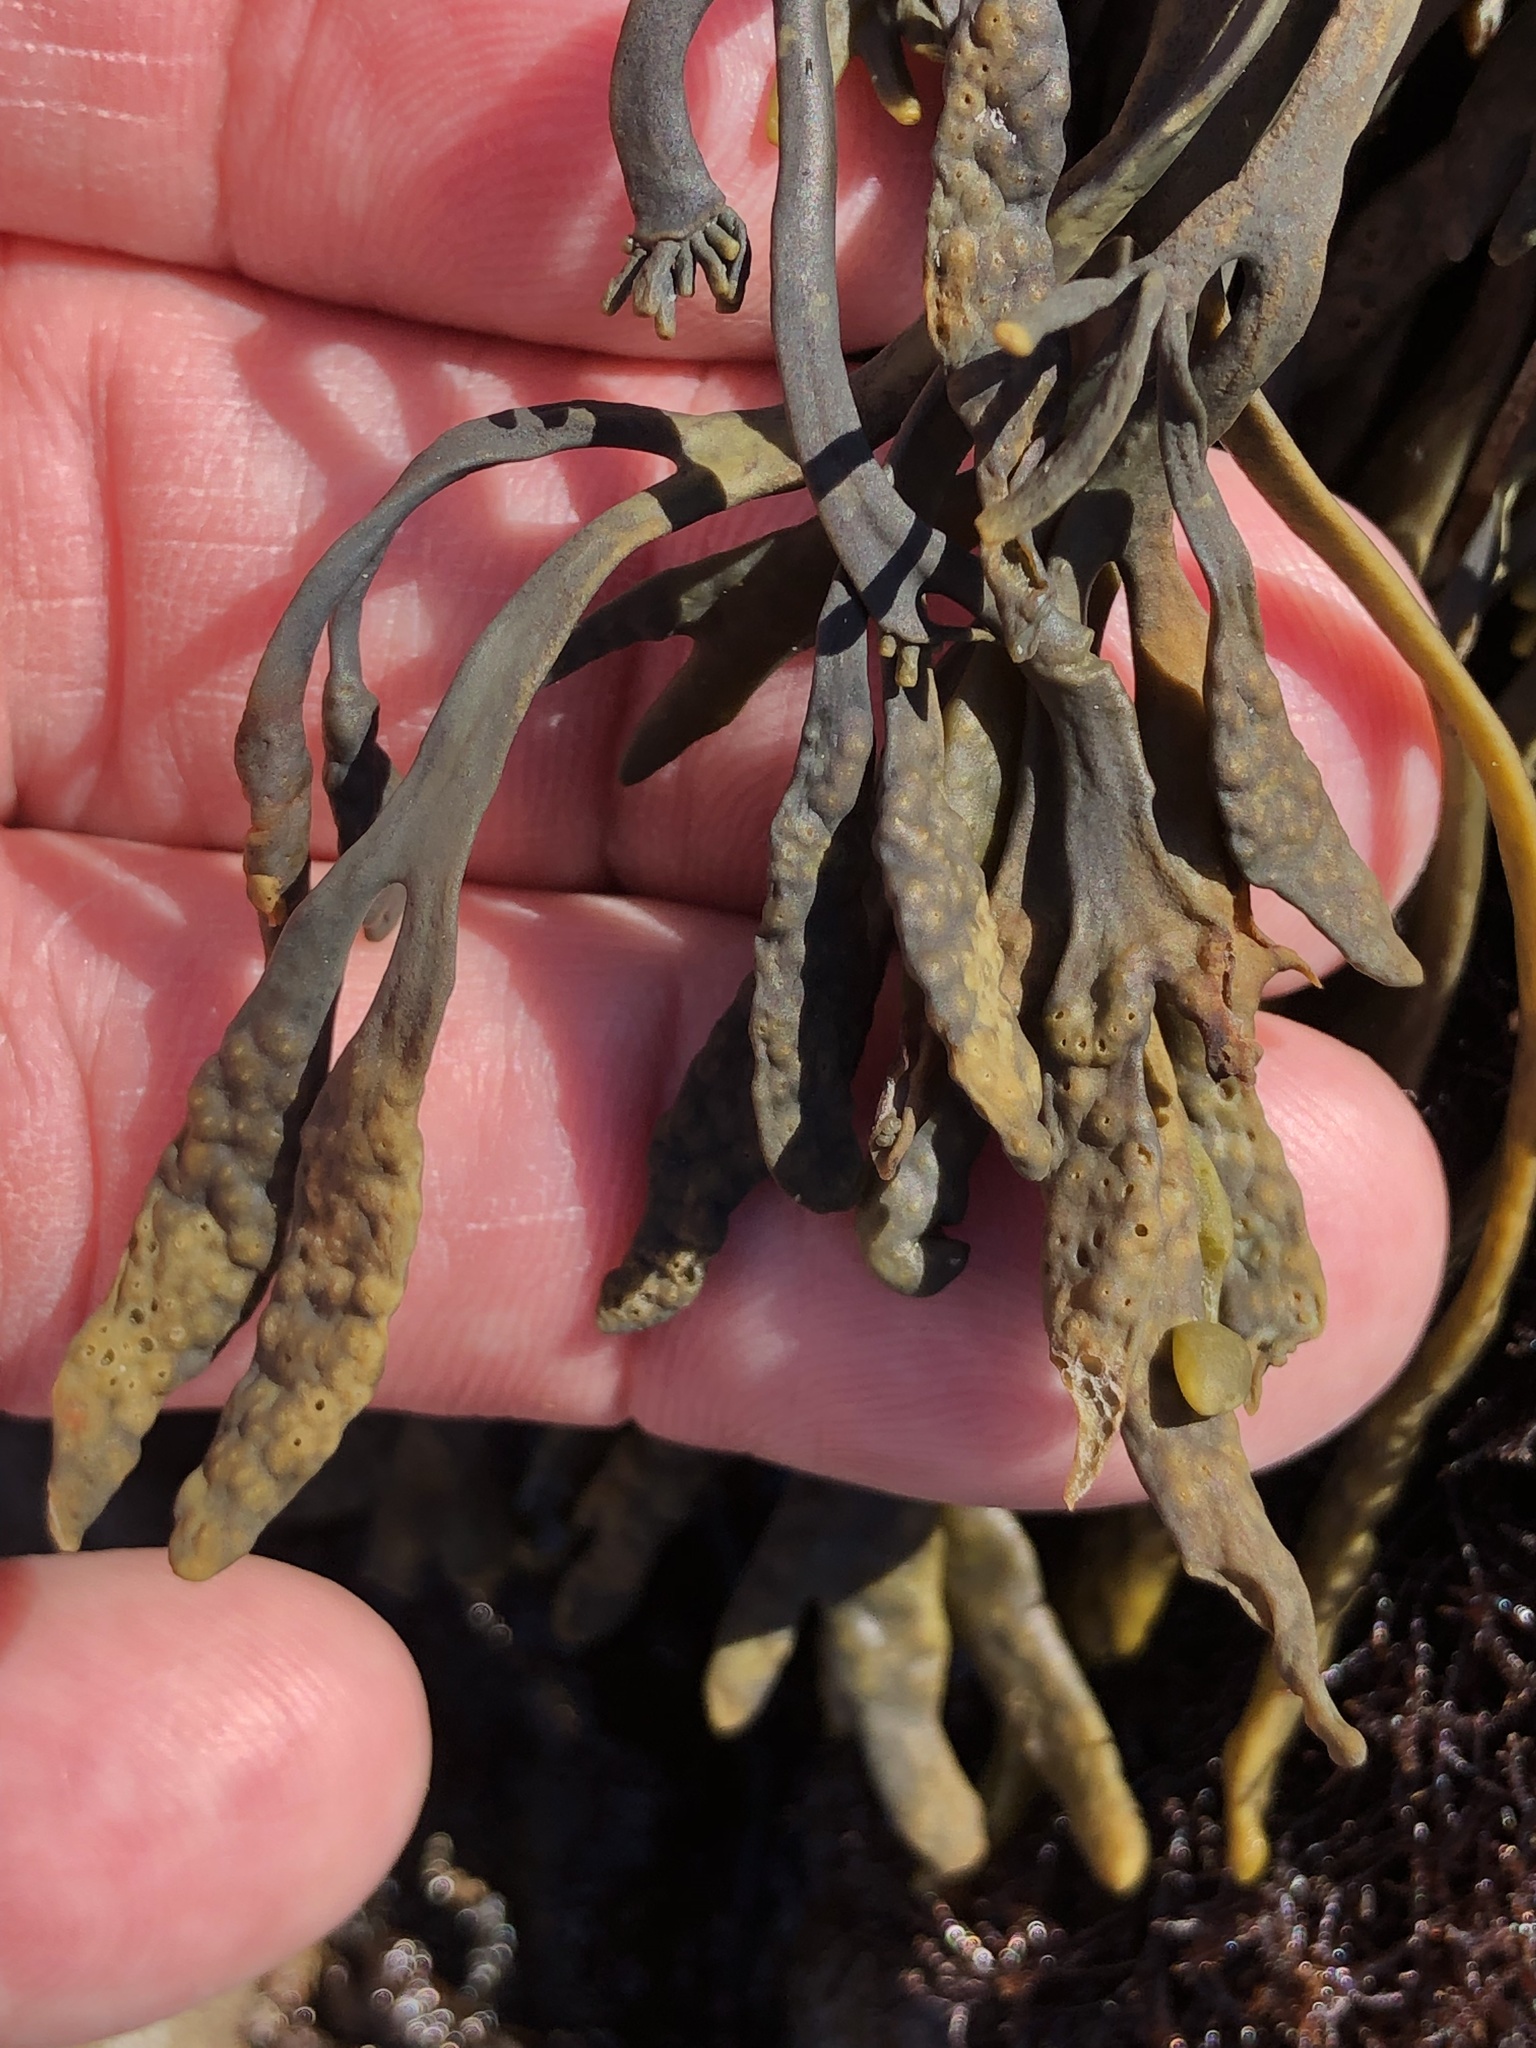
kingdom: Chromista
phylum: Ochrophyta
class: Phaeophyceae
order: Fucales
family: Fucaceae
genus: Silvetia
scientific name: Silvetia
